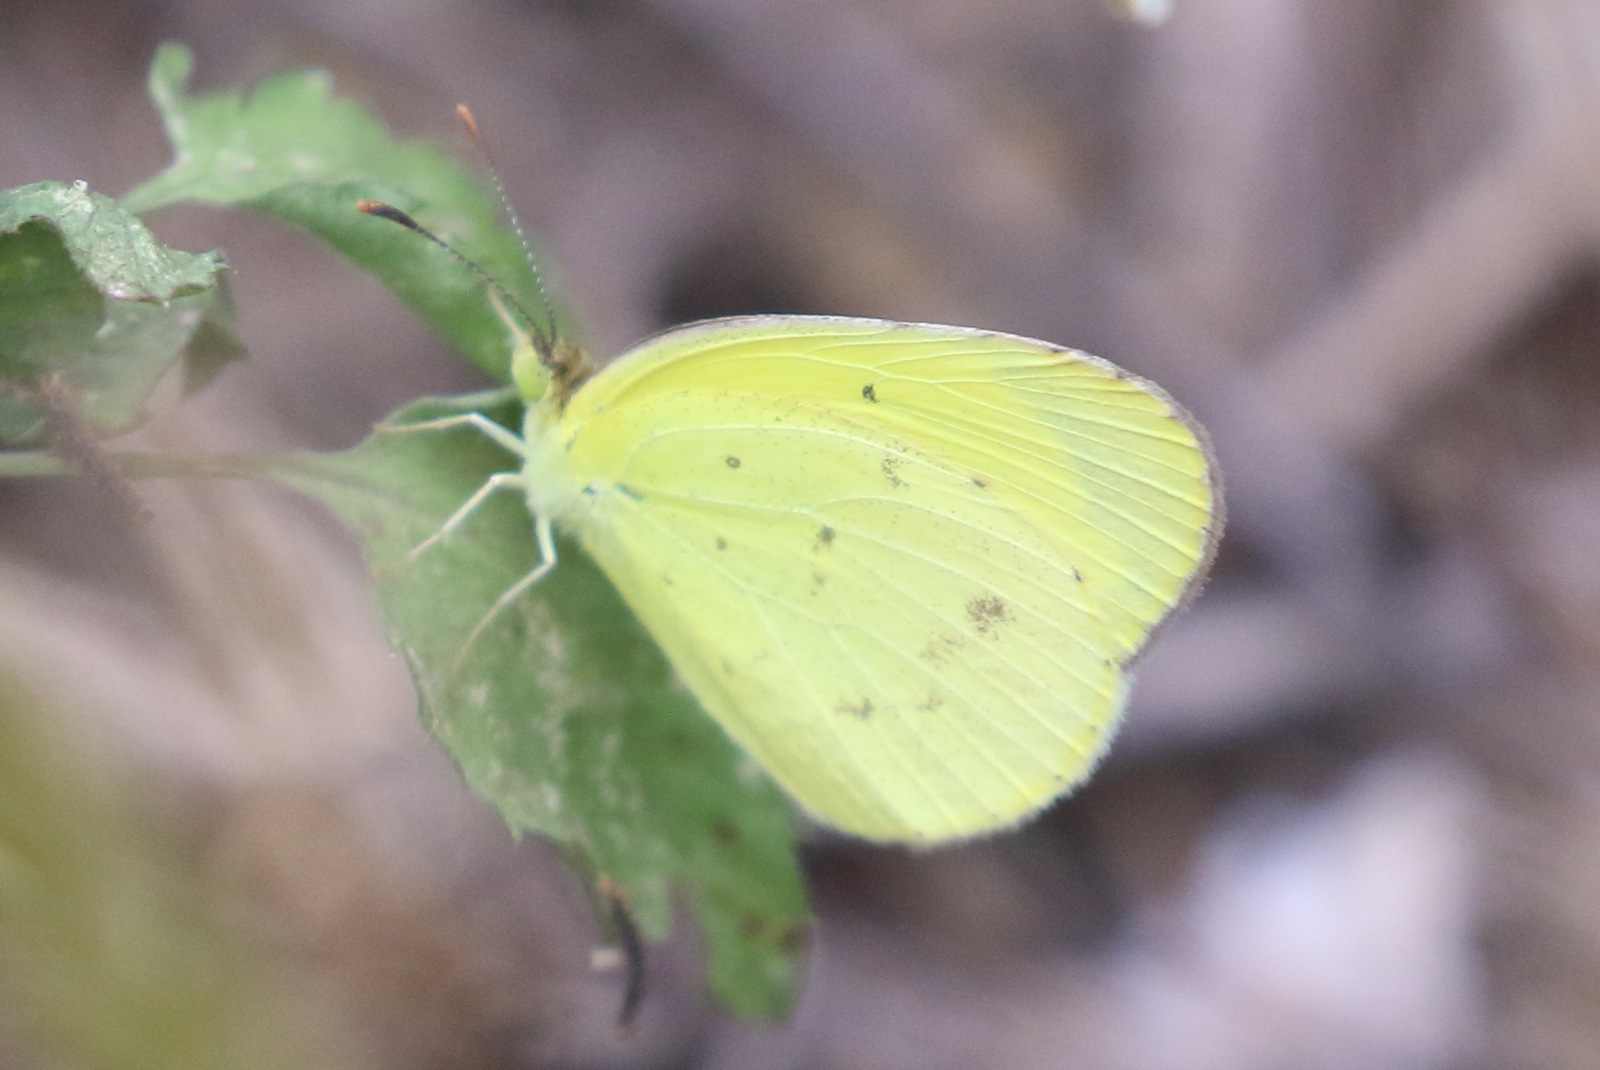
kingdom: Animalia
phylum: Arthropoda
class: Insecta
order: Lepidoptera
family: Pieridae
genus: Eurema
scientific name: Eurema smilax
